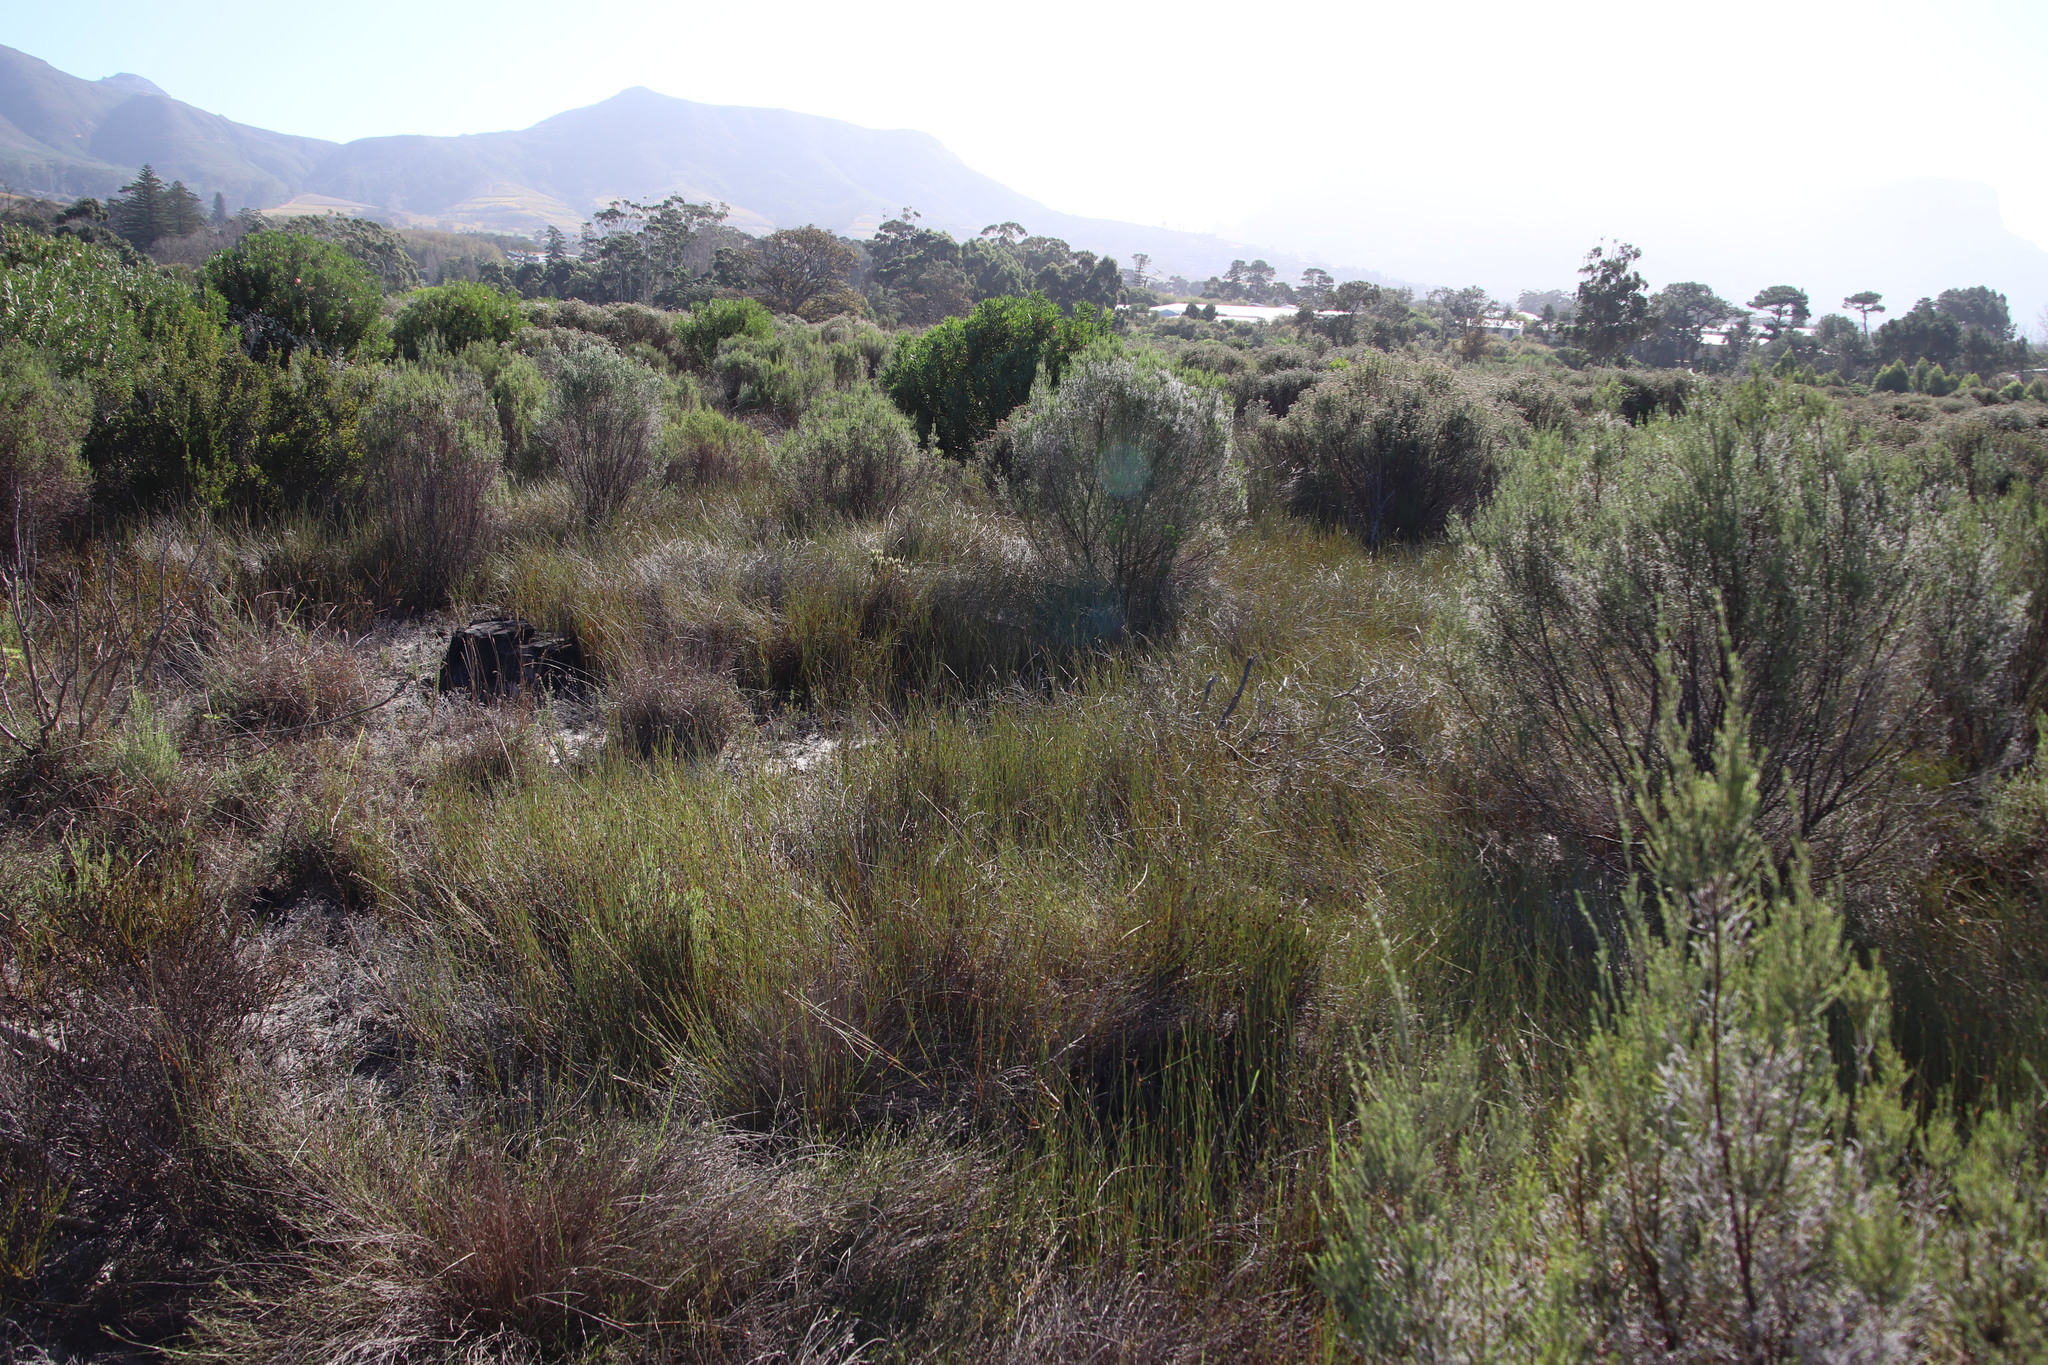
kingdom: Plantae
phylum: Tracheophyta
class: Liliopsida
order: Poales
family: Restionaceae
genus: Willdenowia
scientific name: Willdenowia sulcata
